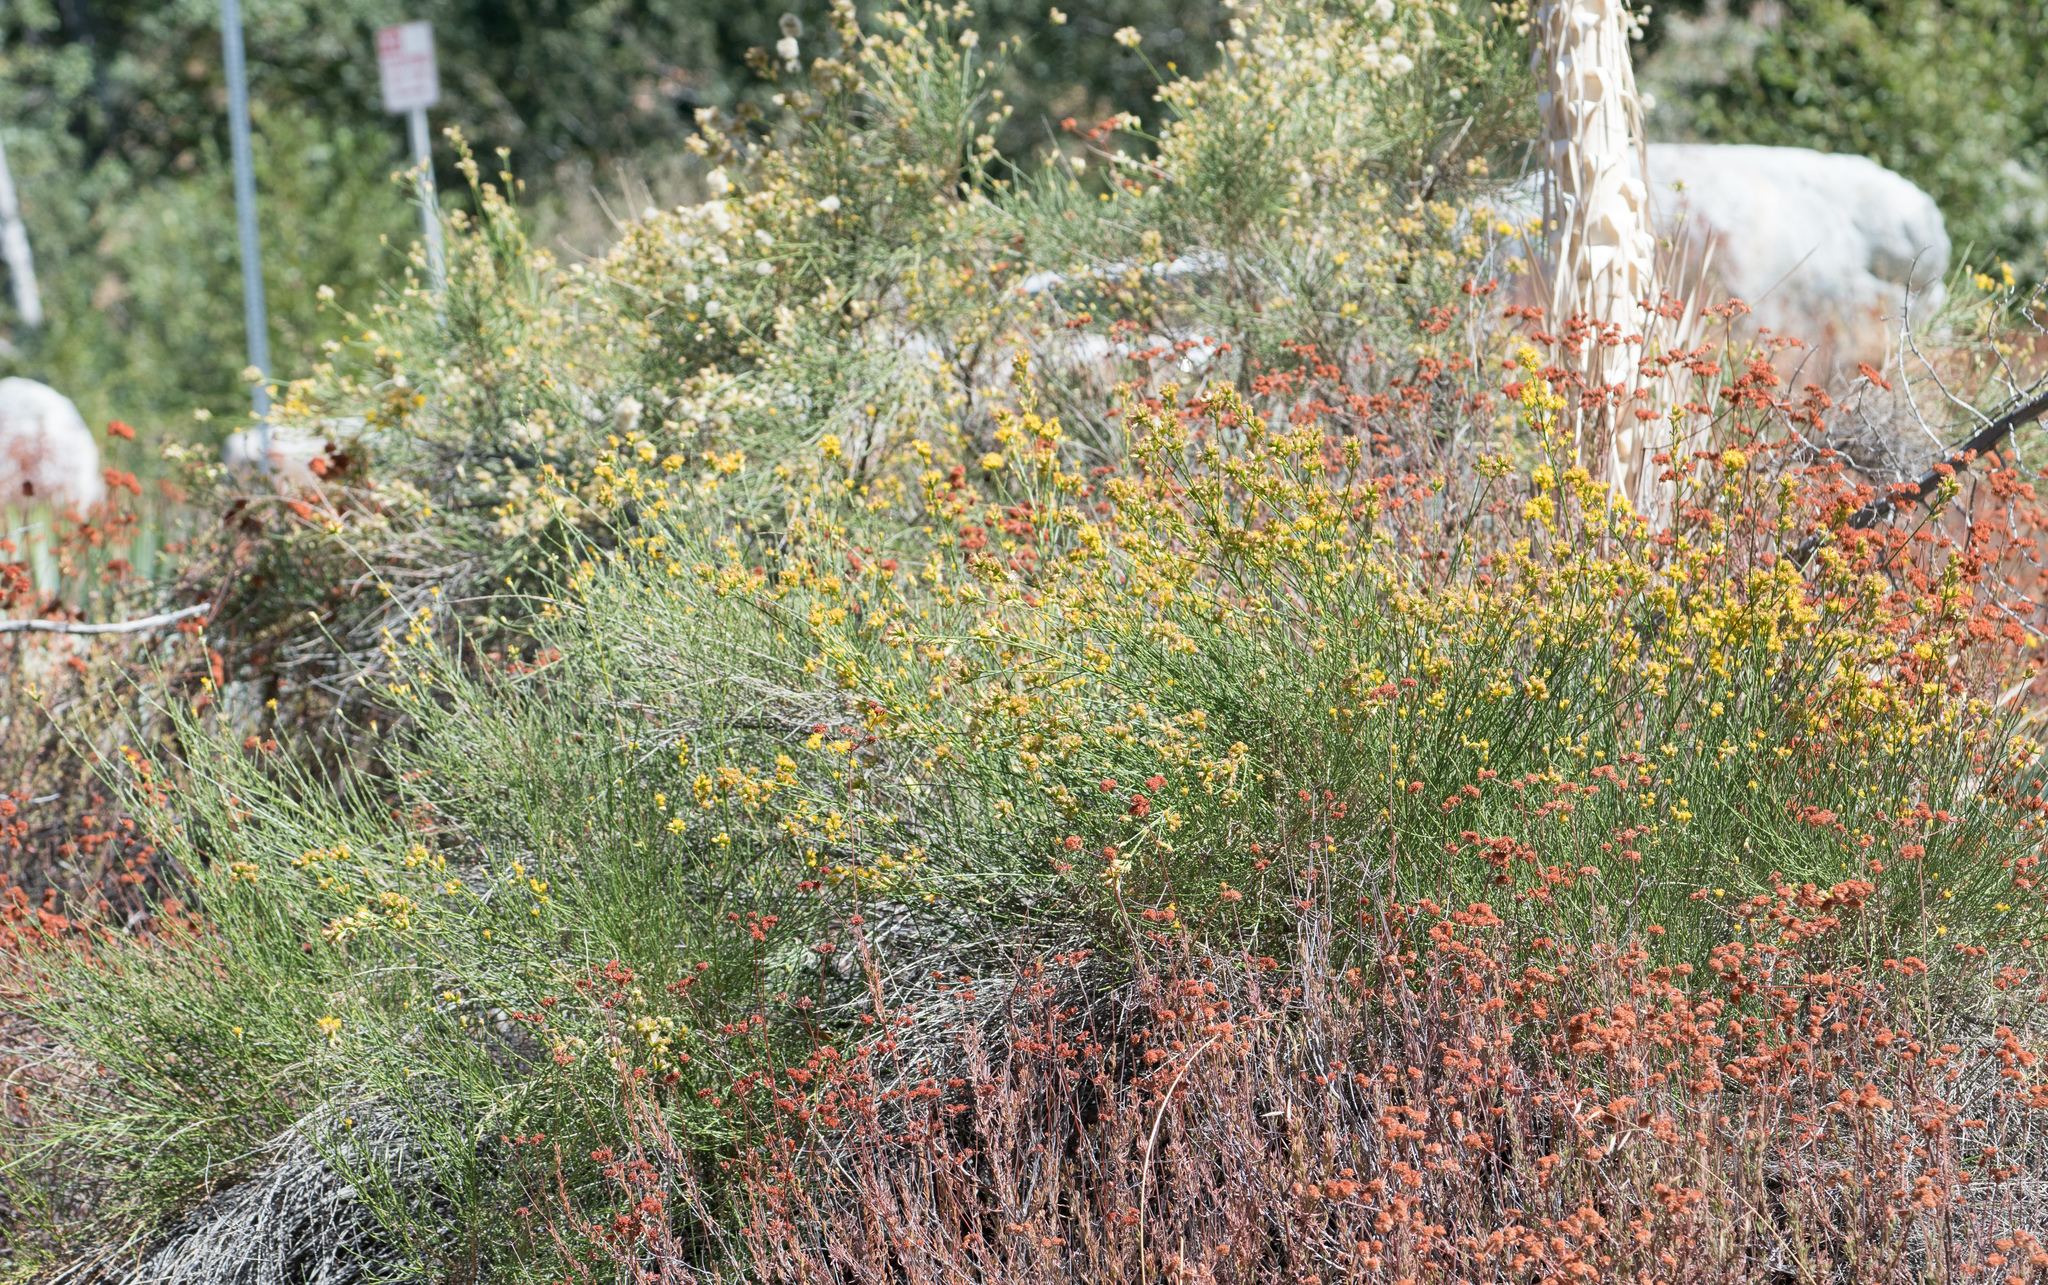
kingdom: Plantae
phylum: Tracheophyta
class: Magnoliopsida
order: Asterales
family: Asteraceae
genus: Lepidospartum
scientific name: Lepidospartum squamatum
